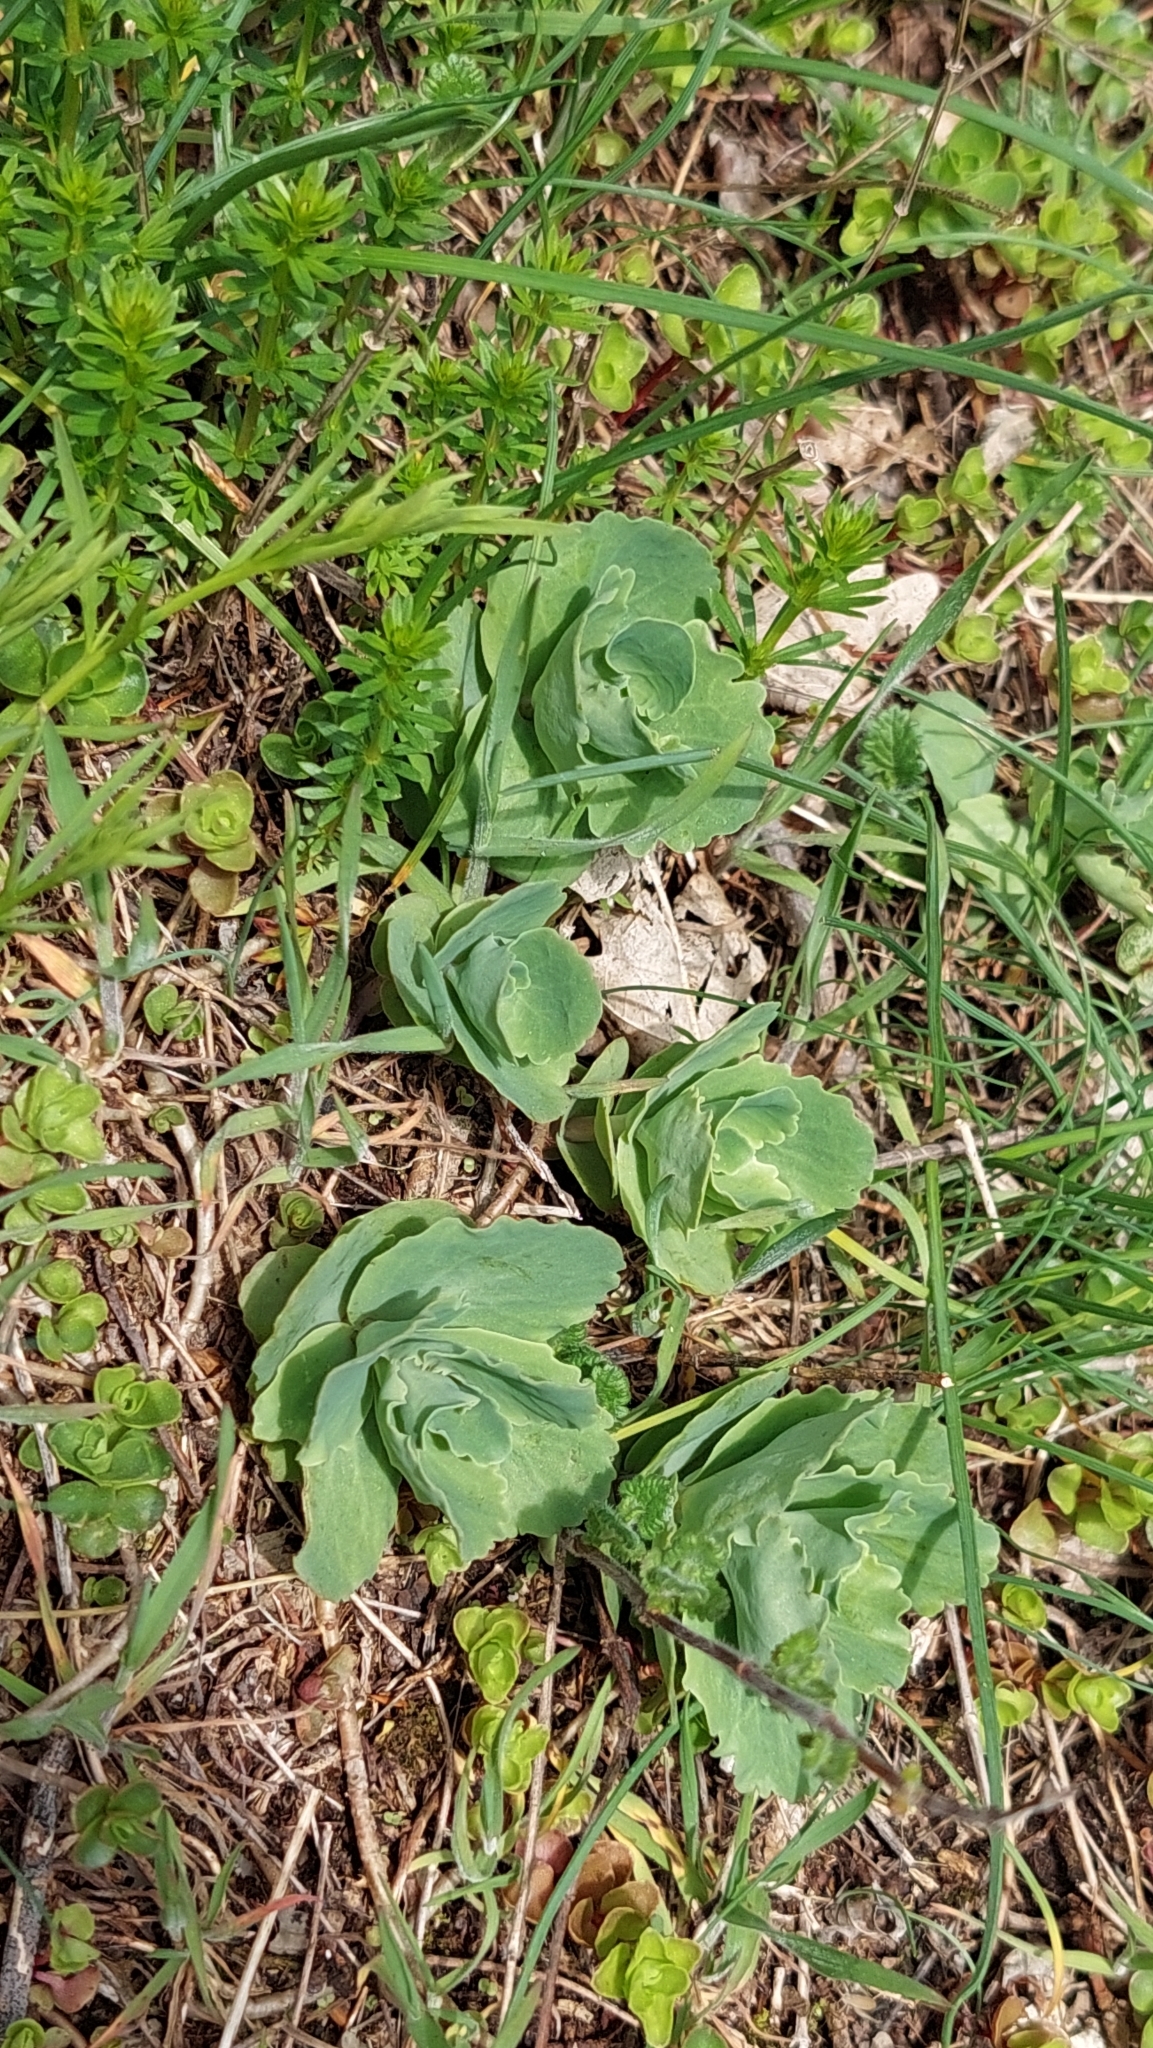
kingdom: Plantae
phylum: Tracheophyta
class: Magnoliopsida
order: Saxifragales
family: Crassulaceae
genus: Hylotelephium
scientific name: Hylotelephium maximum
